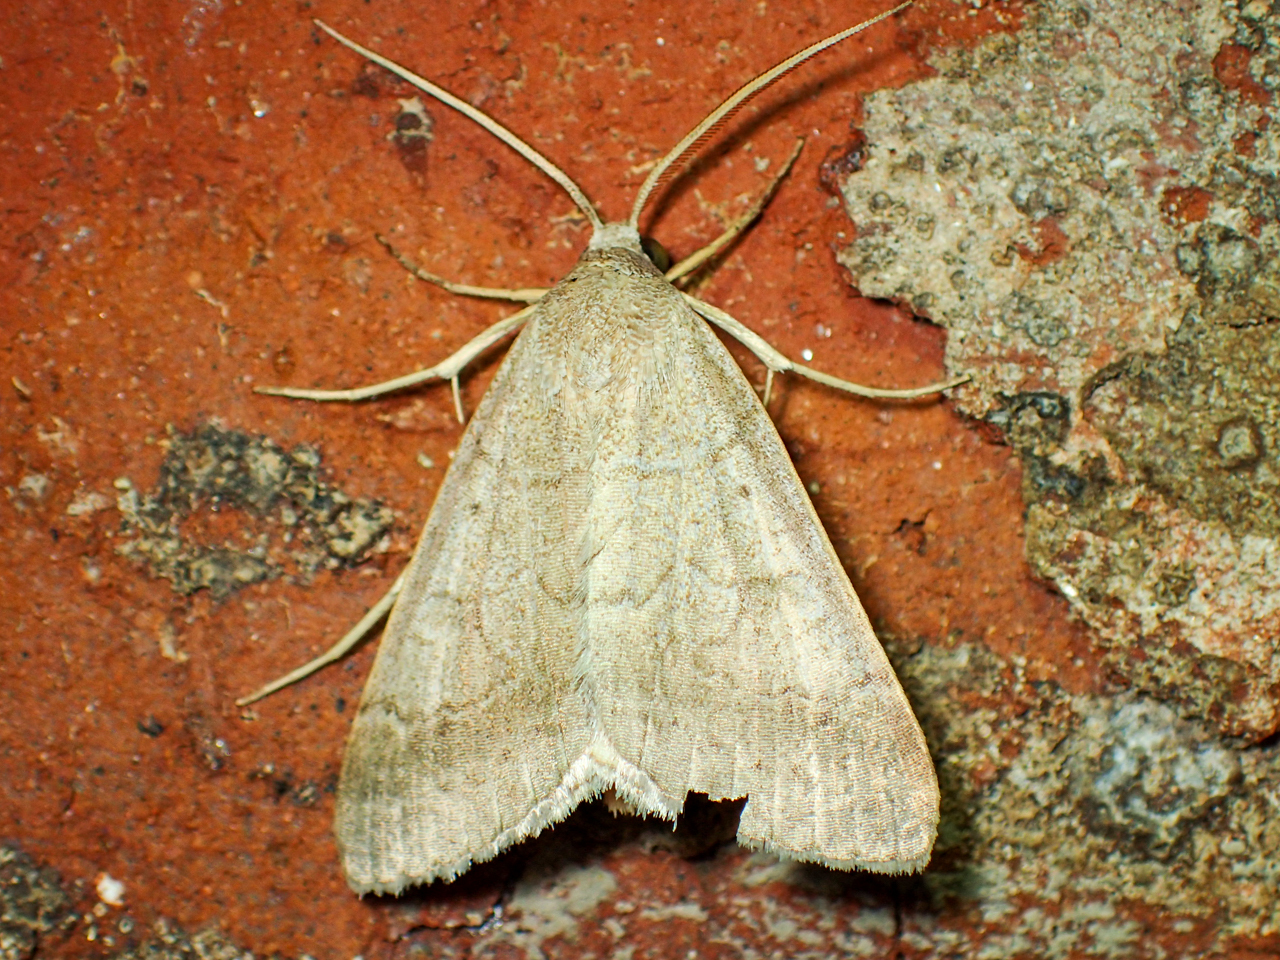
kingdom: Animalia
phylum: Arthropoda
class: Insecta
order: Lepidoptera
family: Erebidae
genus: Caenurgia
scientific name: Caenurgia chloropha
